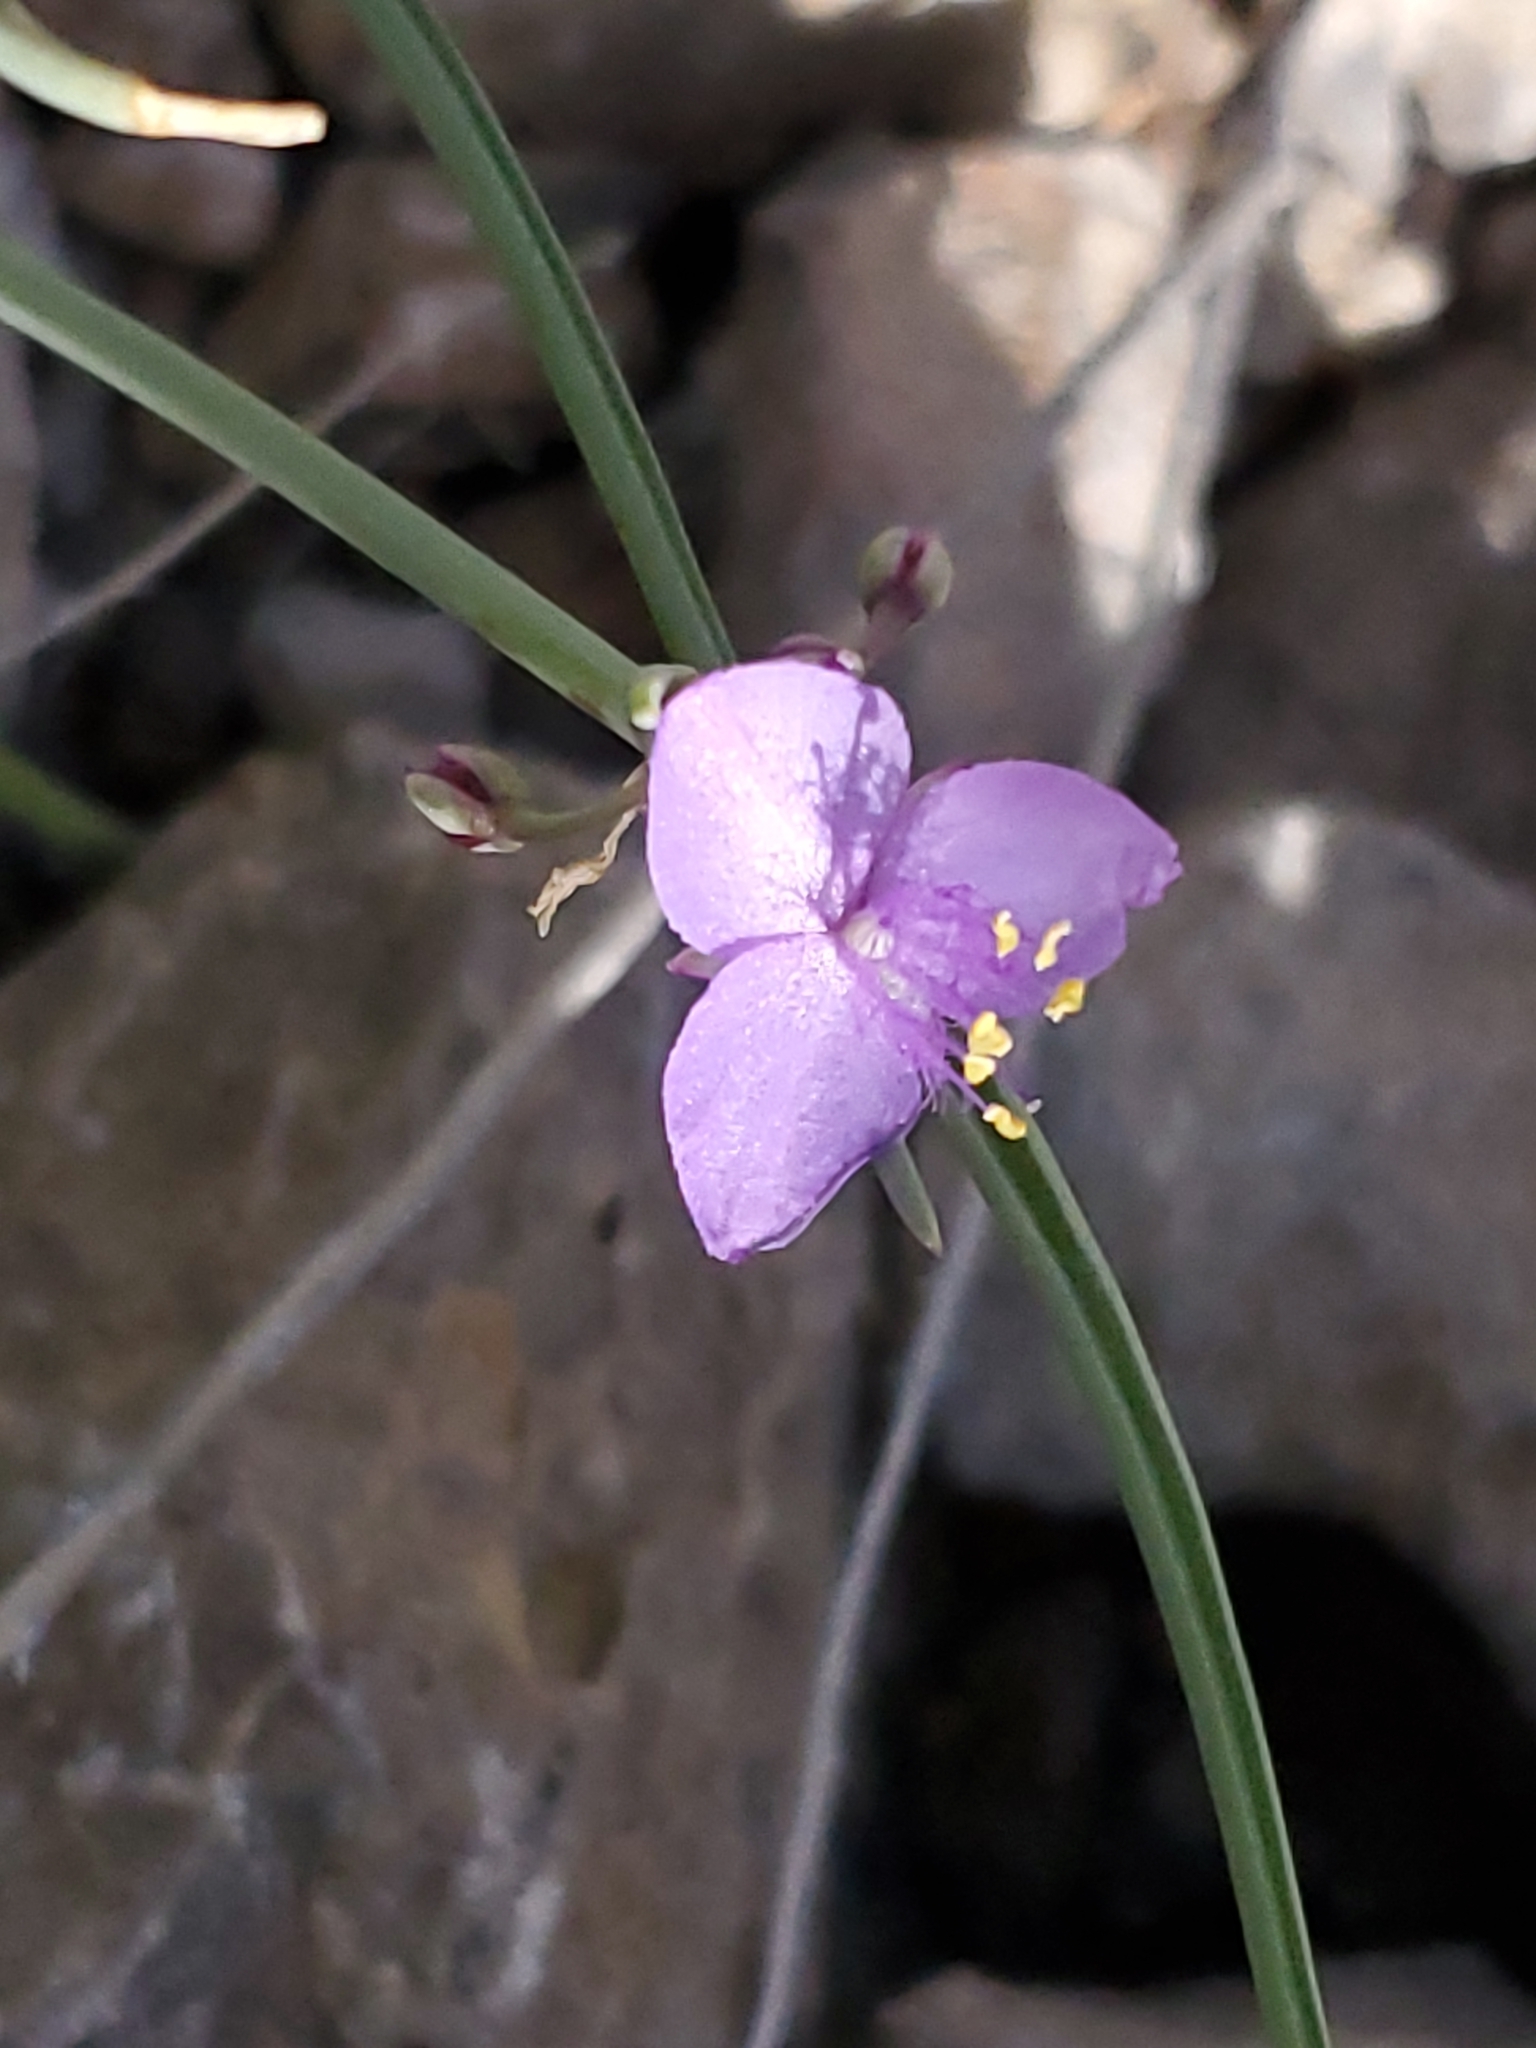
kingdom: Plantae
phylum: Tracheophyta
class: Liliopsida
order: Commelinales
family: Commelinaceae
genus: Tradescantia
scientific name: Tradescantia wrightii
